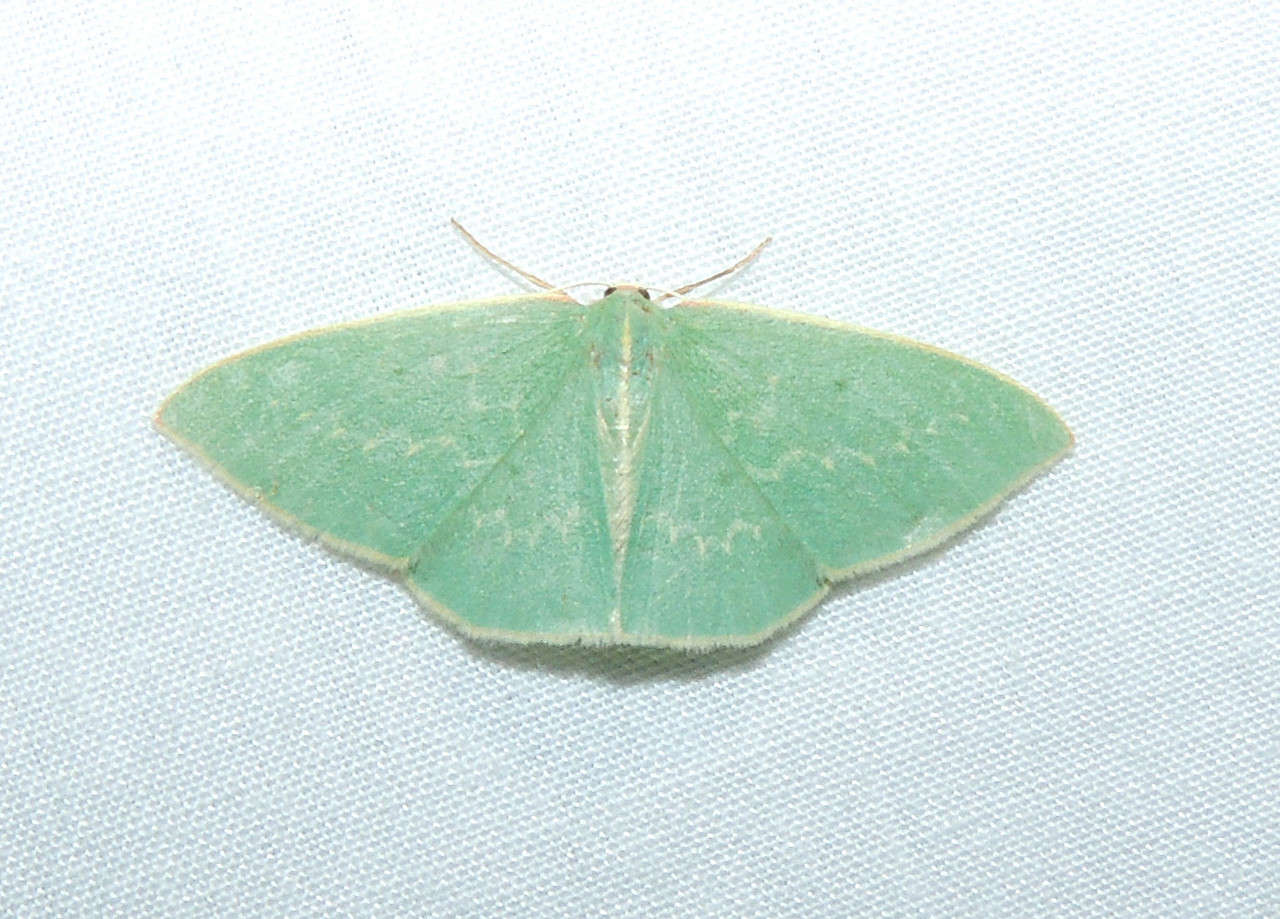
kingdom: Animalia
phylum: Arthropoda
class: Insecta
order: Lepidoptera
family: Geometridae
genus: Chlorocoma
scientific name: Chlorocoma melocrossa
